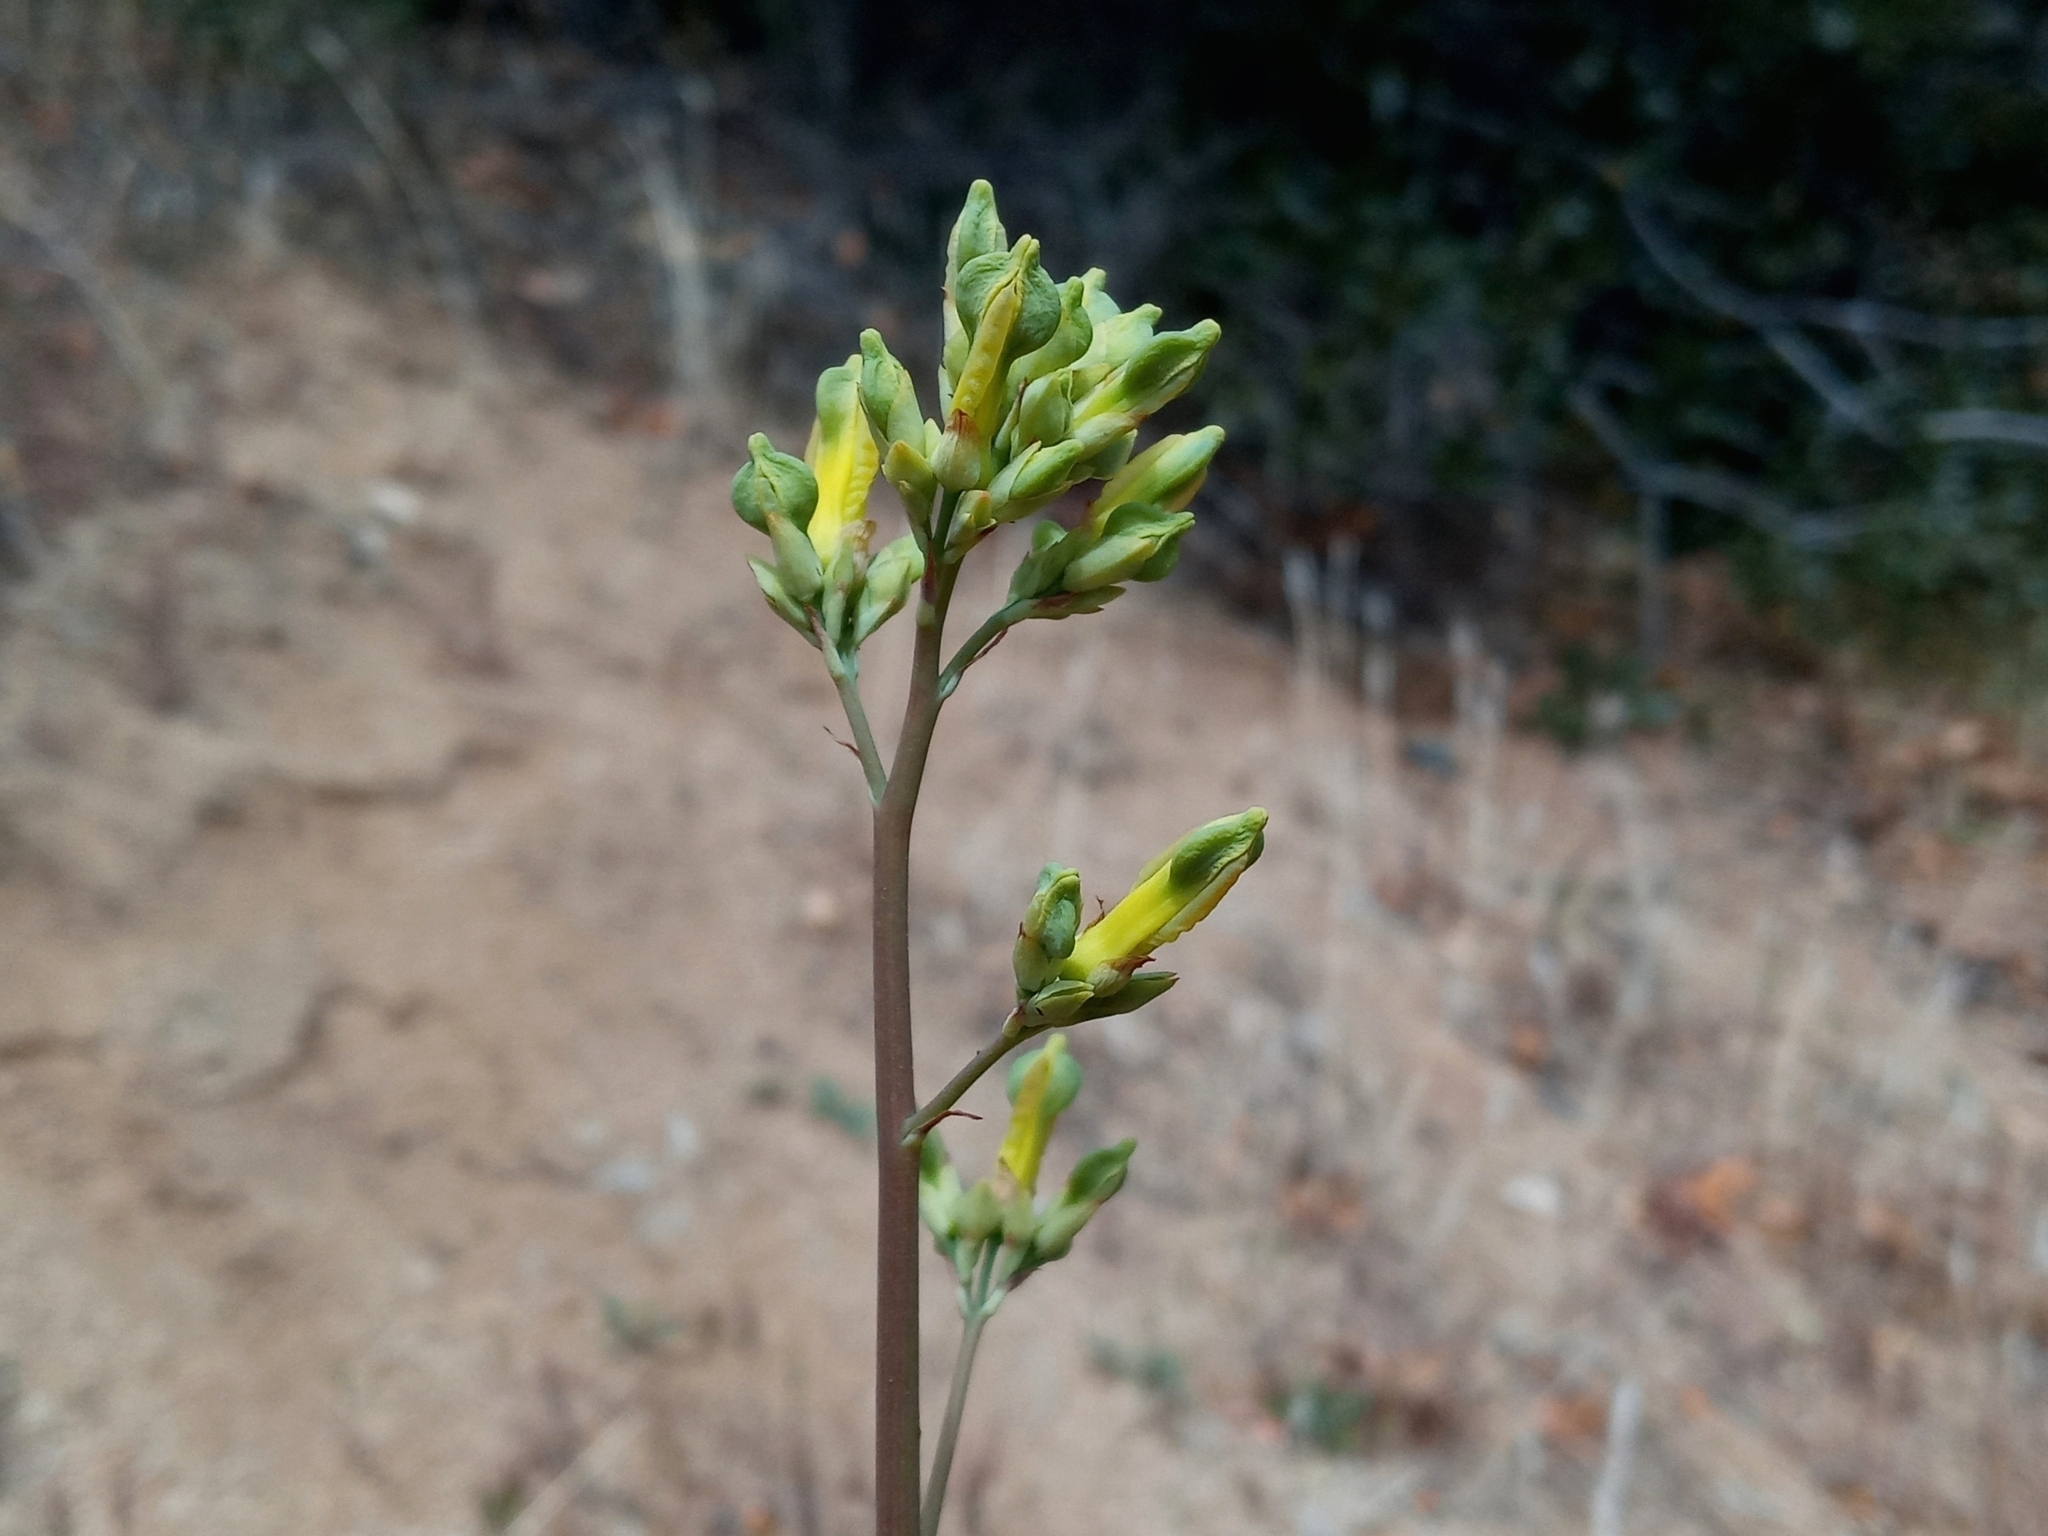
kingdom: Plantae
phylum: Tracheophyta
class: Magnoliopsida
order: Ranunculales
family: Papaveraceae
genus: Ehrendorferia
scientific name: Ehrendorferia chrysantha
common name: Golden eardrops
